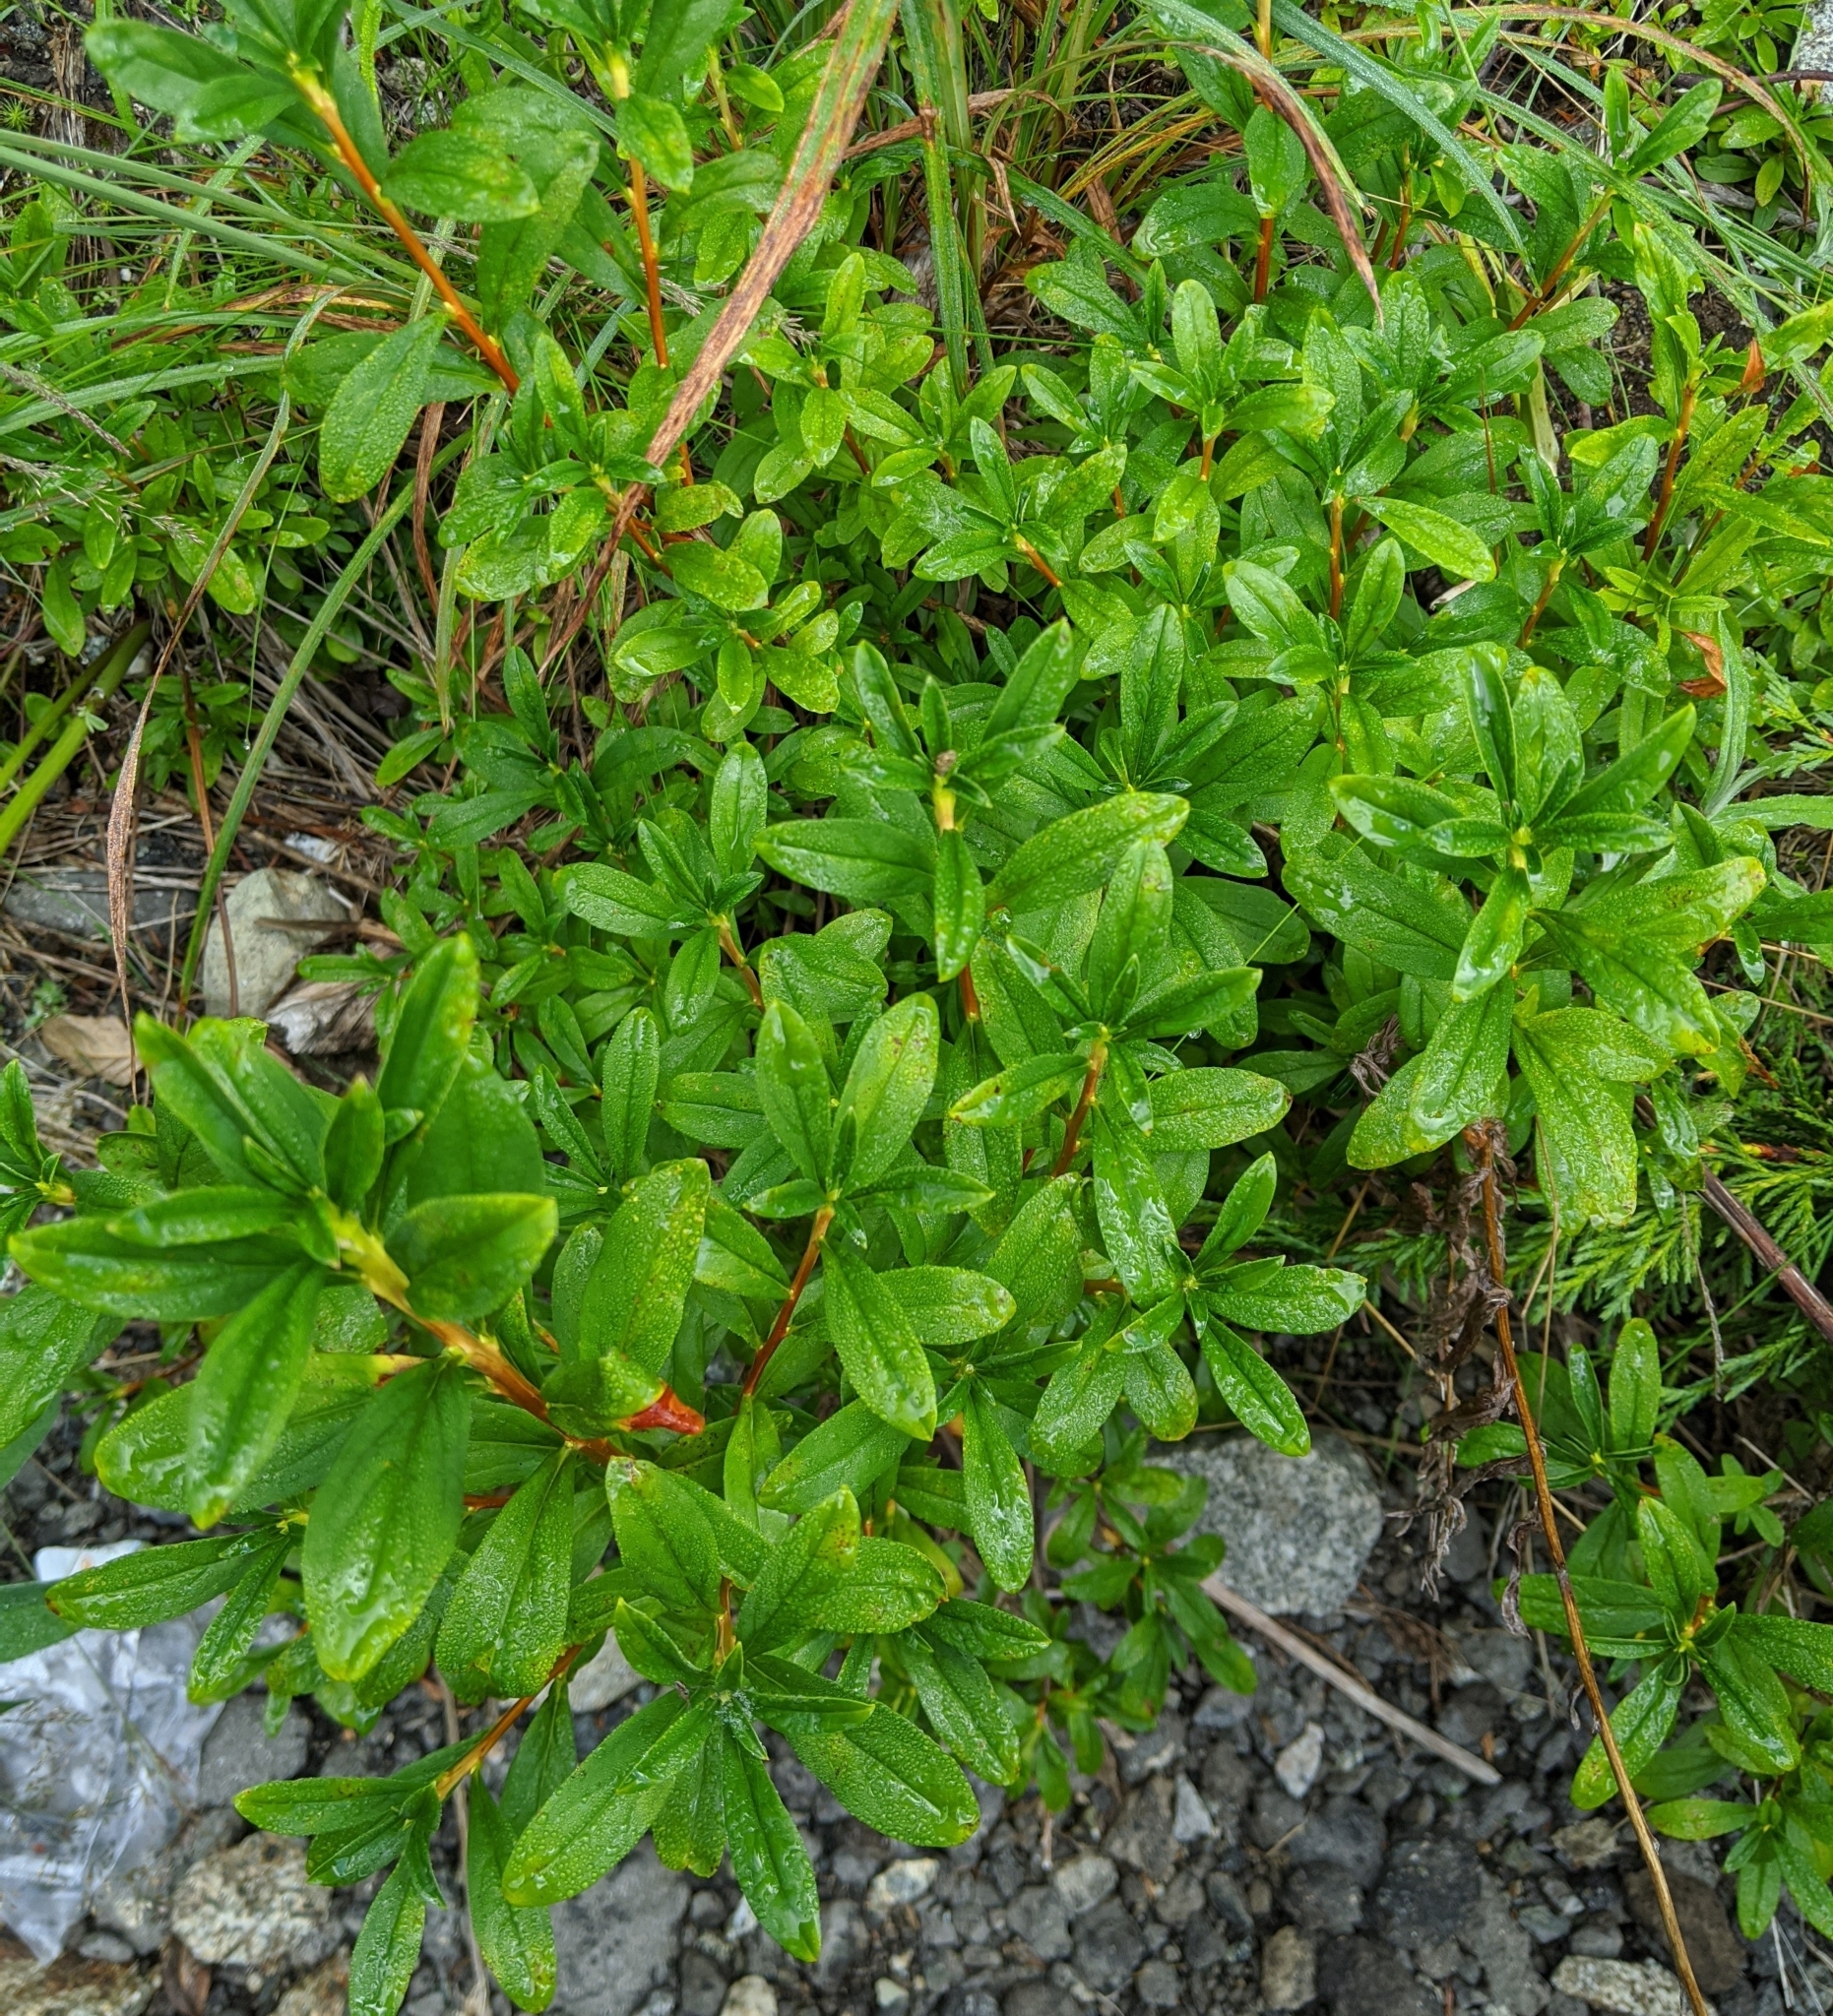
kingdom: Plantae
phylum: Tracheophyta
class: Magnoliopsida
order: Ericales
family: Ericaceae
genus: Elliottia
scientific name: Elliottia pyroliflora
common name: Copperbush
